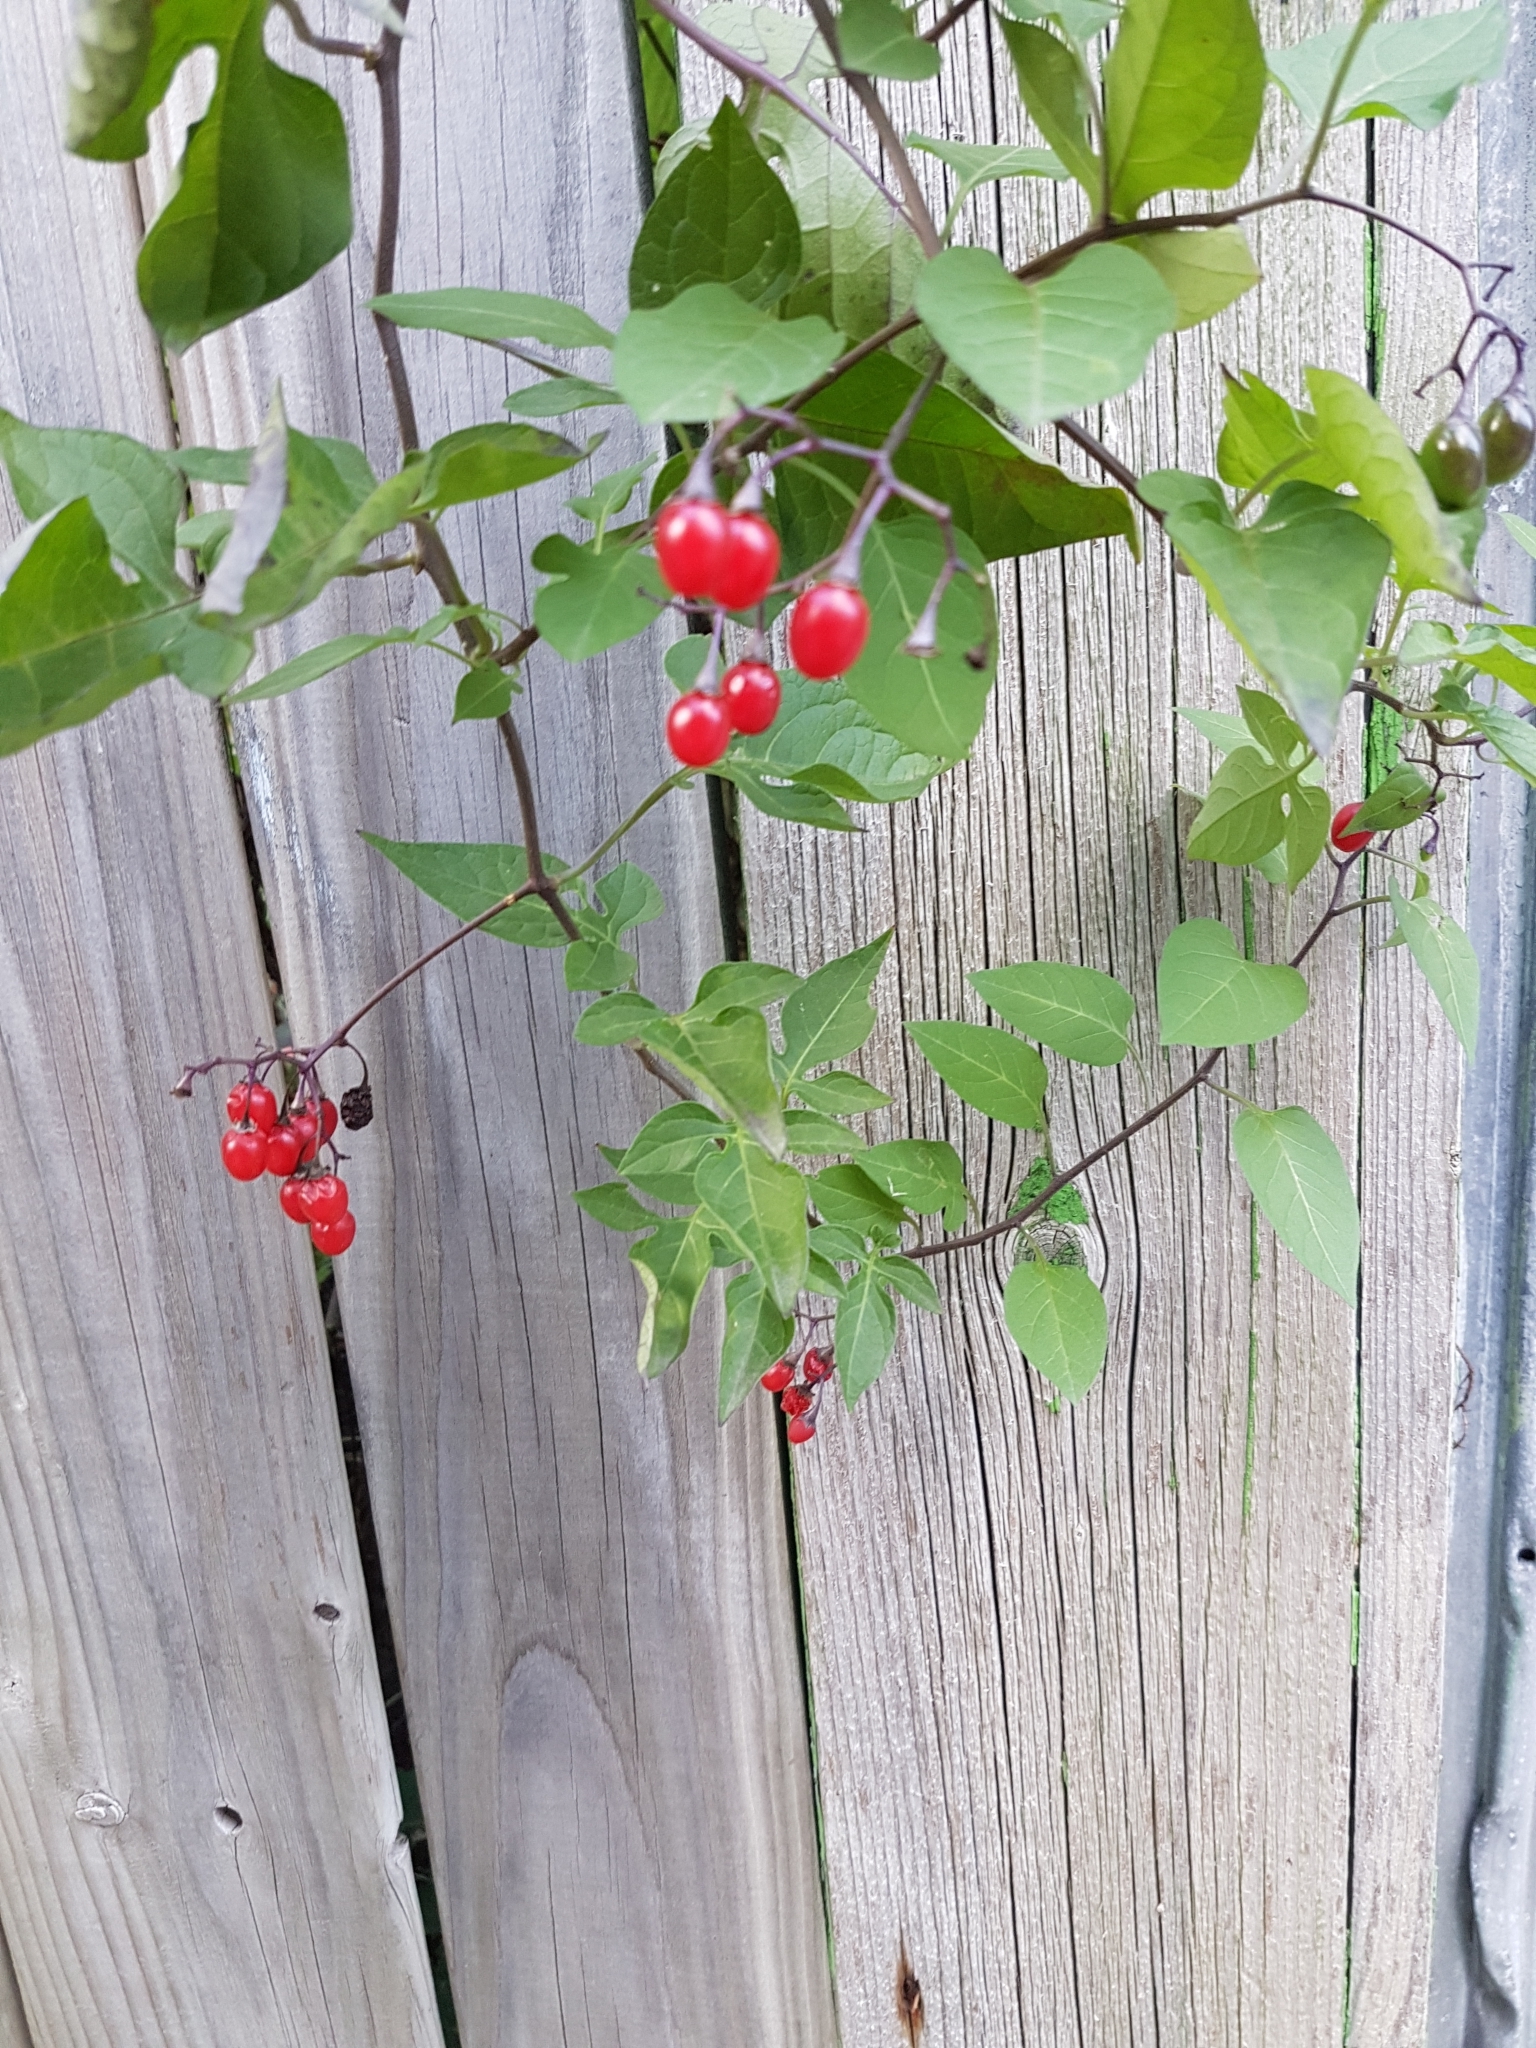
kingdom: Plantae
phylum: Tracheophyta
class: Magnoliopsida
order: Solanales
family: Solanaceae
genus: Solanum
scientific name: Solanum dulcamara
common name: Climbing nightshade
